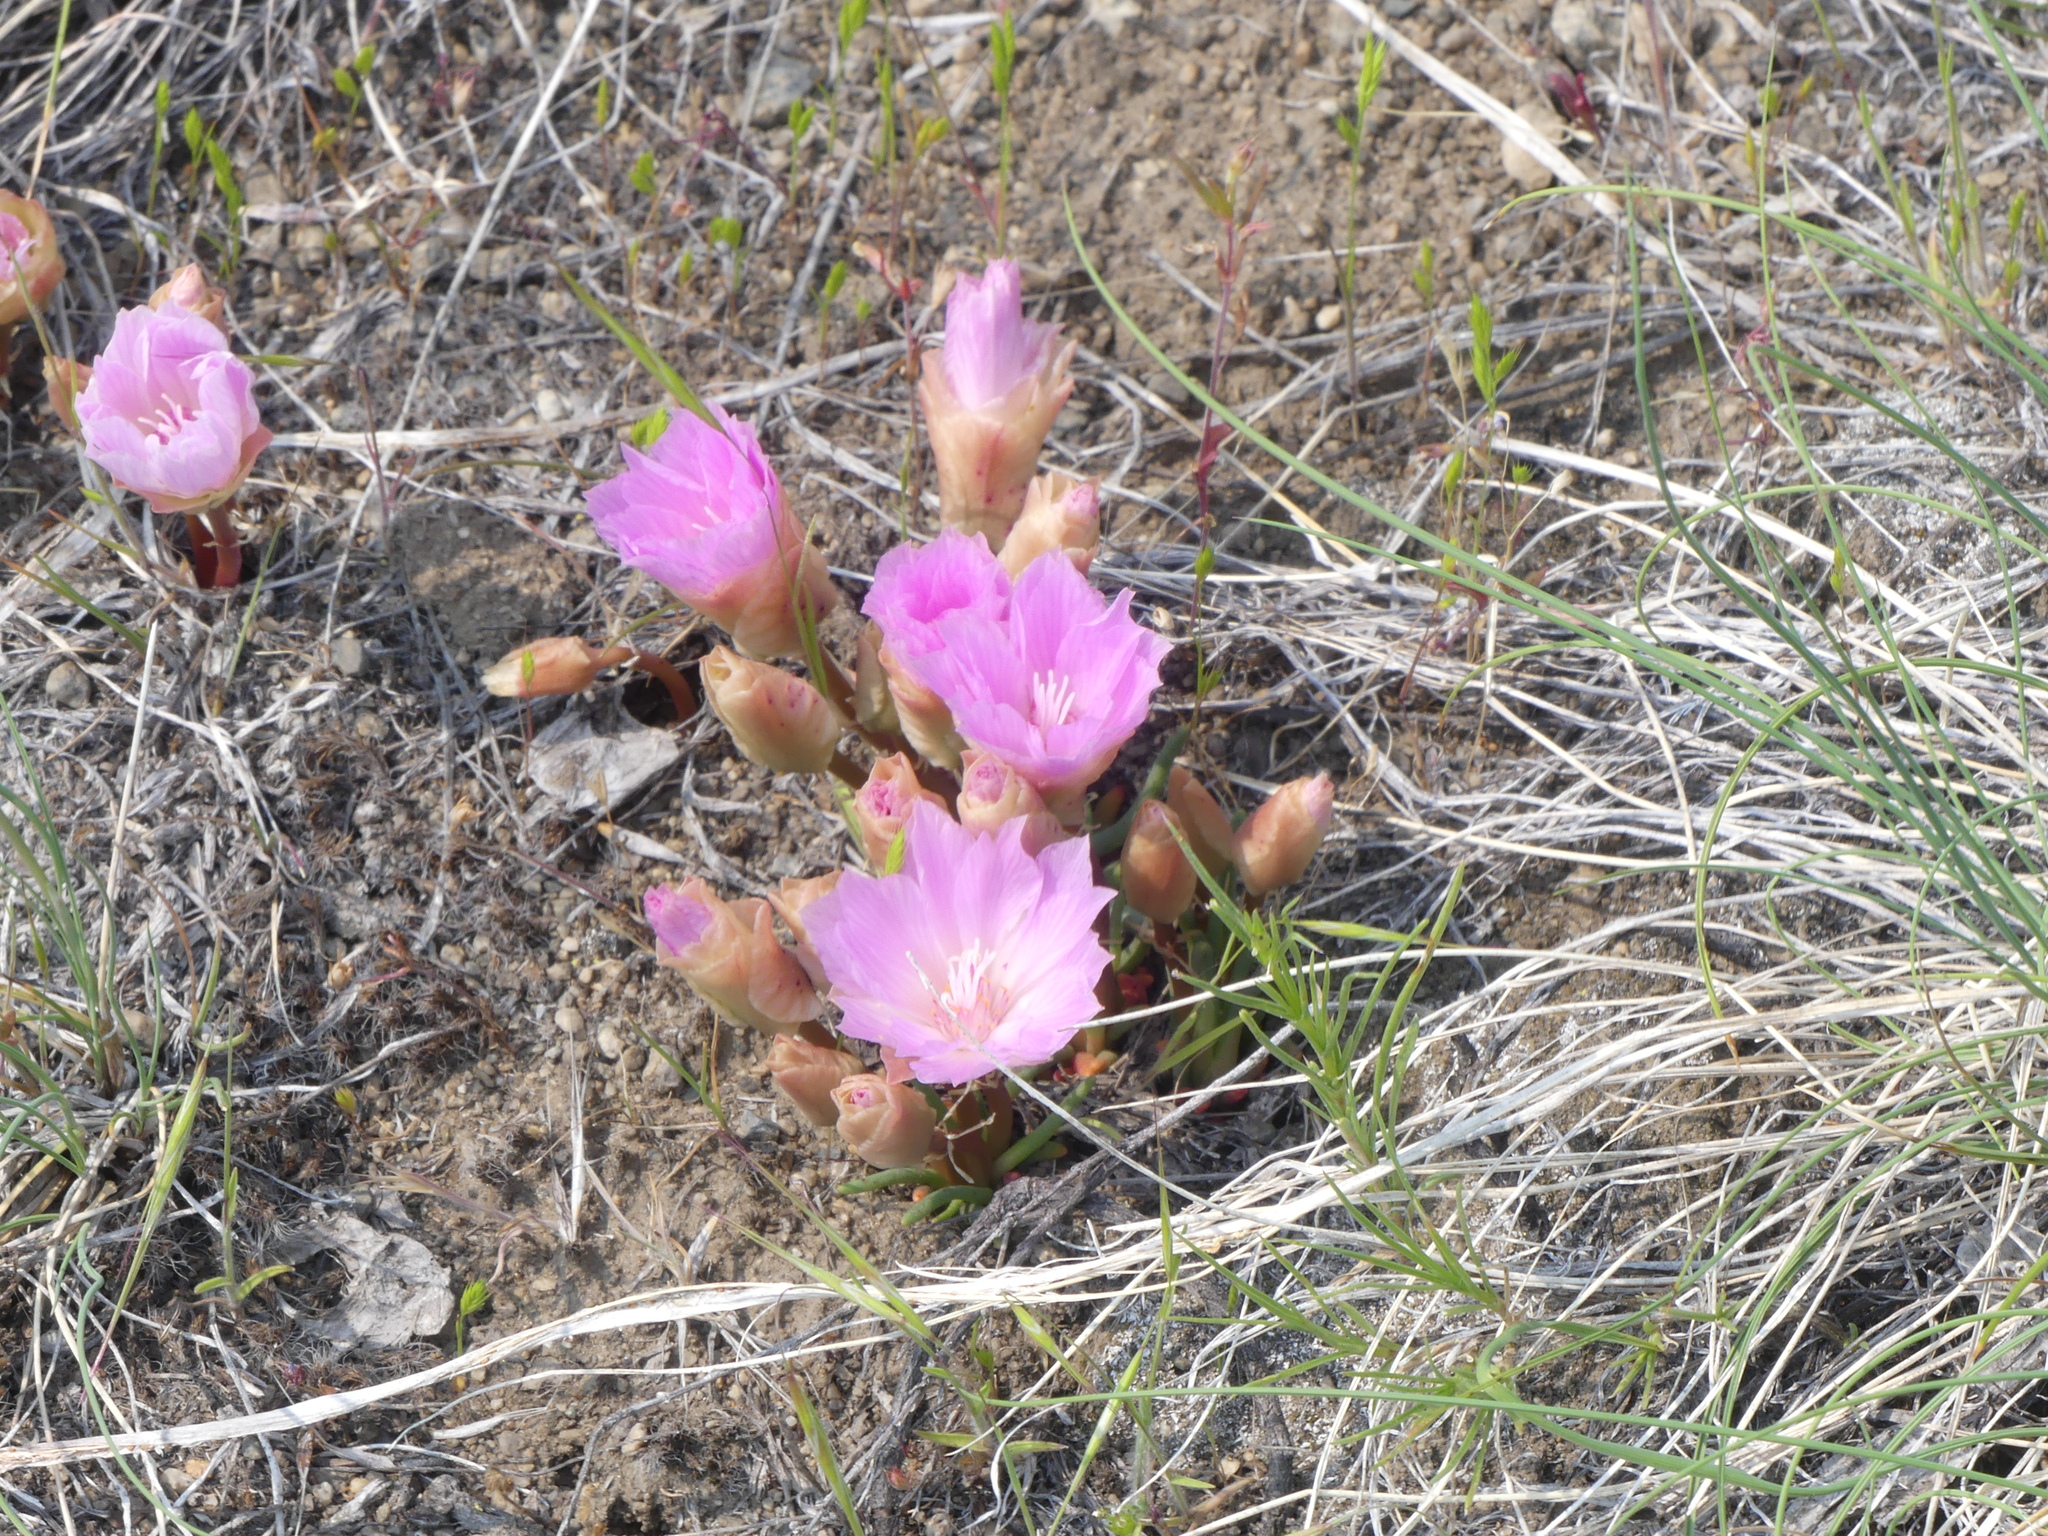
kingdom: Plantae
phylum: Tracheophyta
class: Magnoliopsida
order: Caryophyllales
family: Montiaceae
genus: Lewisia
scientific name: Lewisia rediviva
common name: Bitter-root
